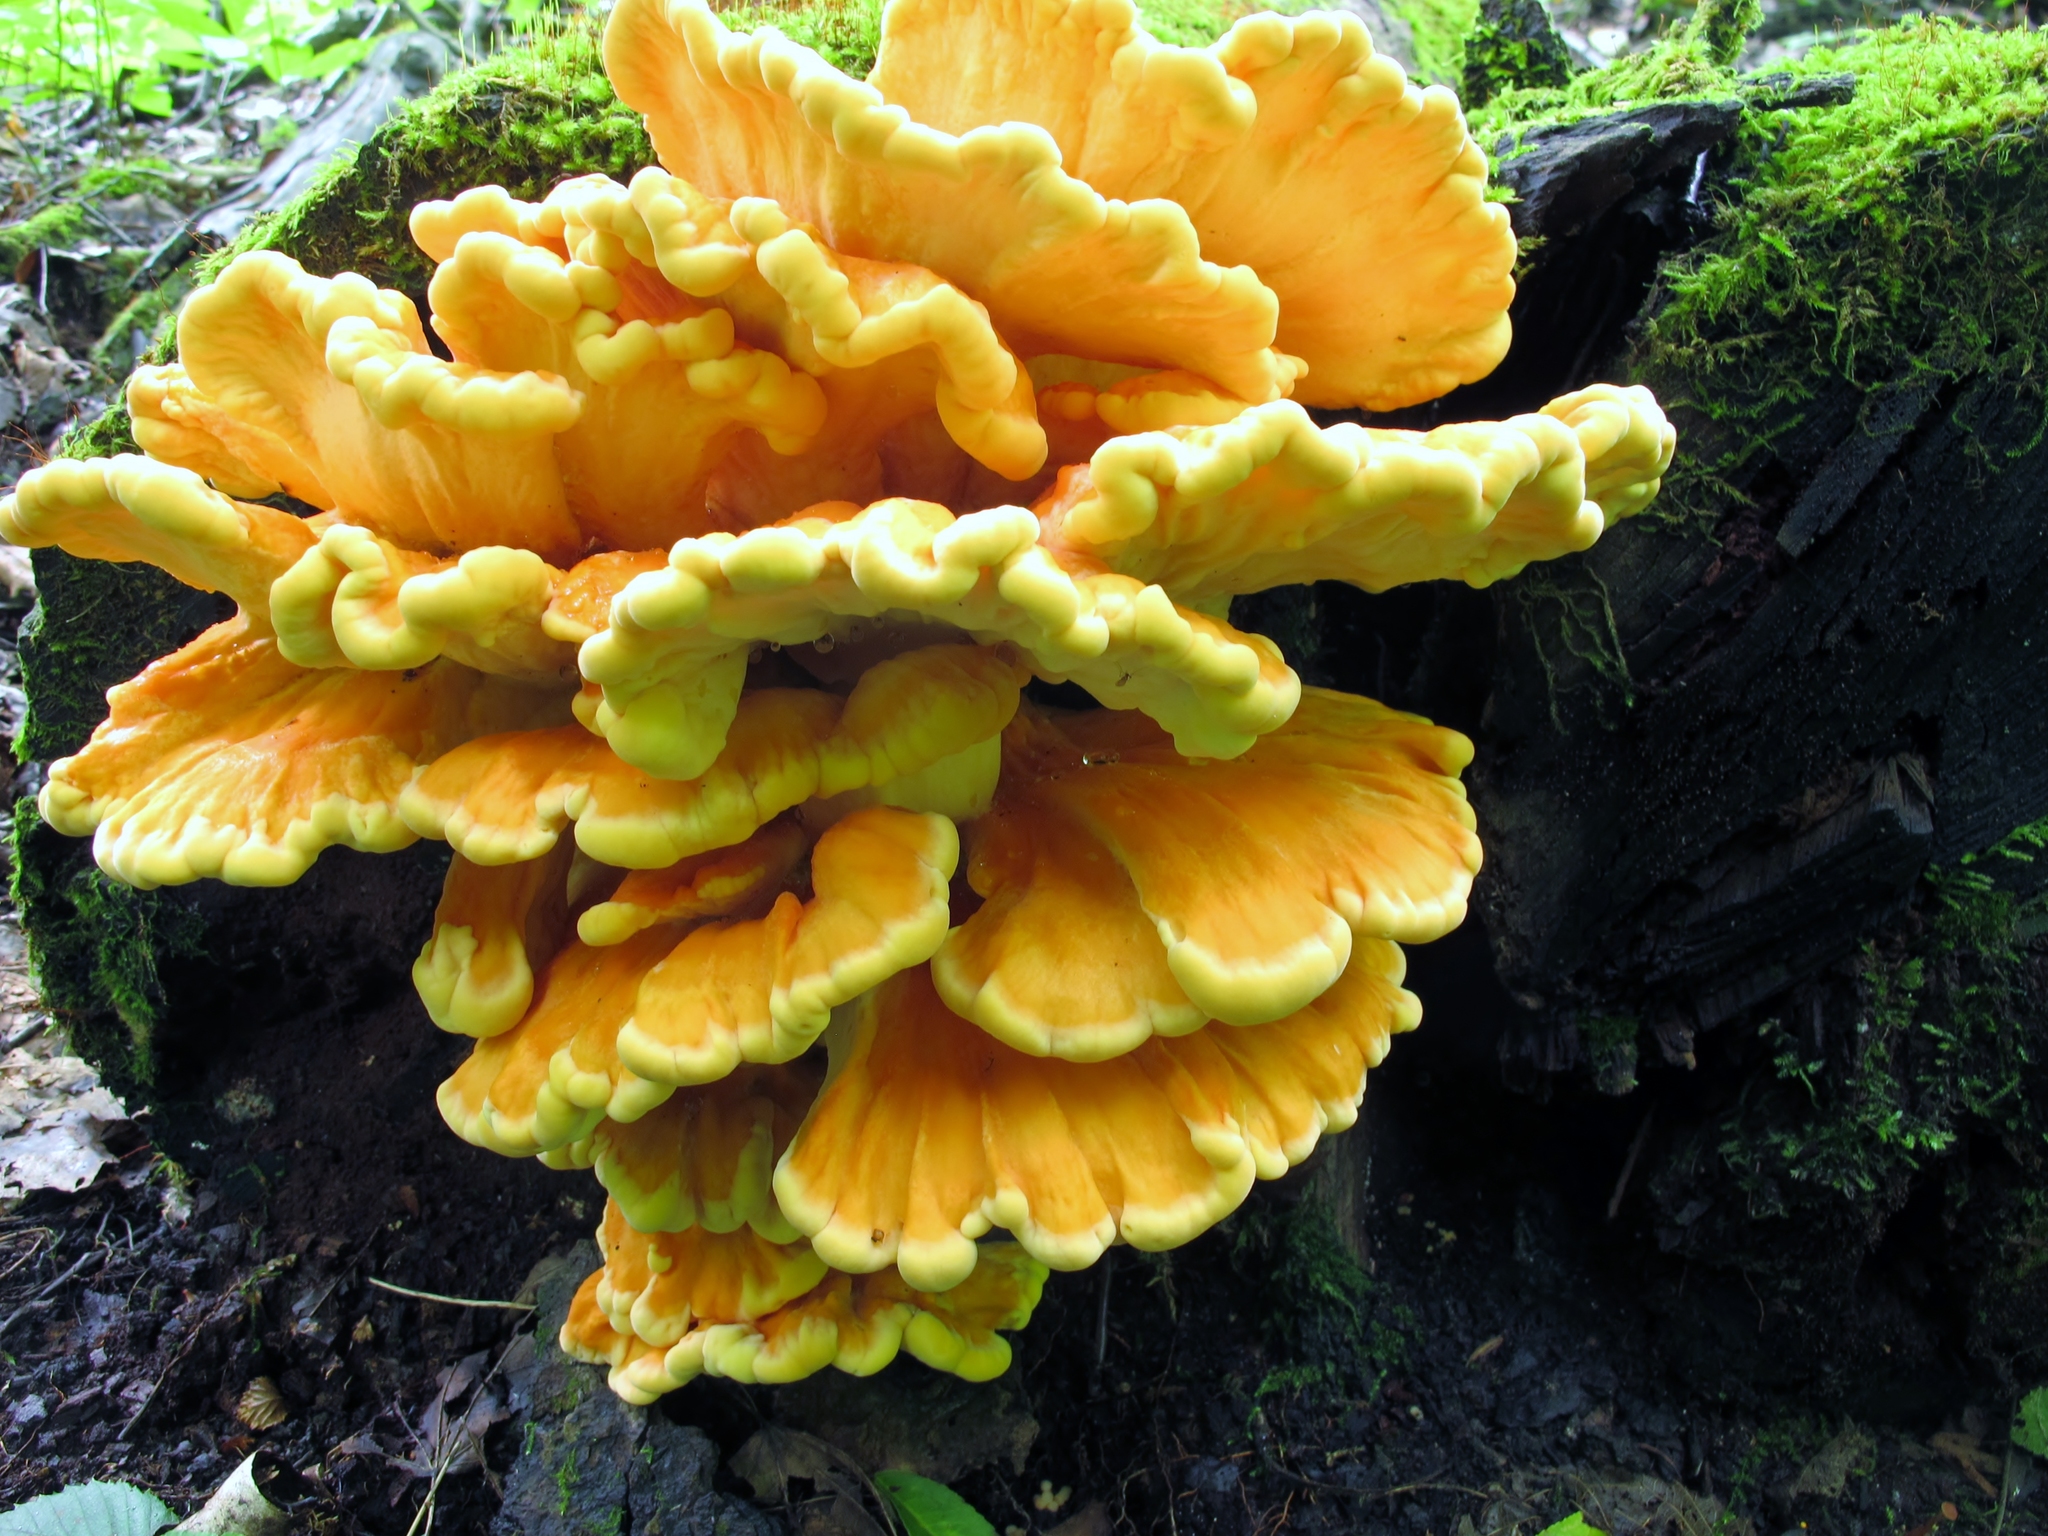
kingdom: Fungi
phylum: Basidiomycota
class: Agaricomycetes
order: Polyporales
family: Laetiporaceae
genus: Laetiporus
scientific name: Laetiporus sulphureus
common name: Chicken of the woods
